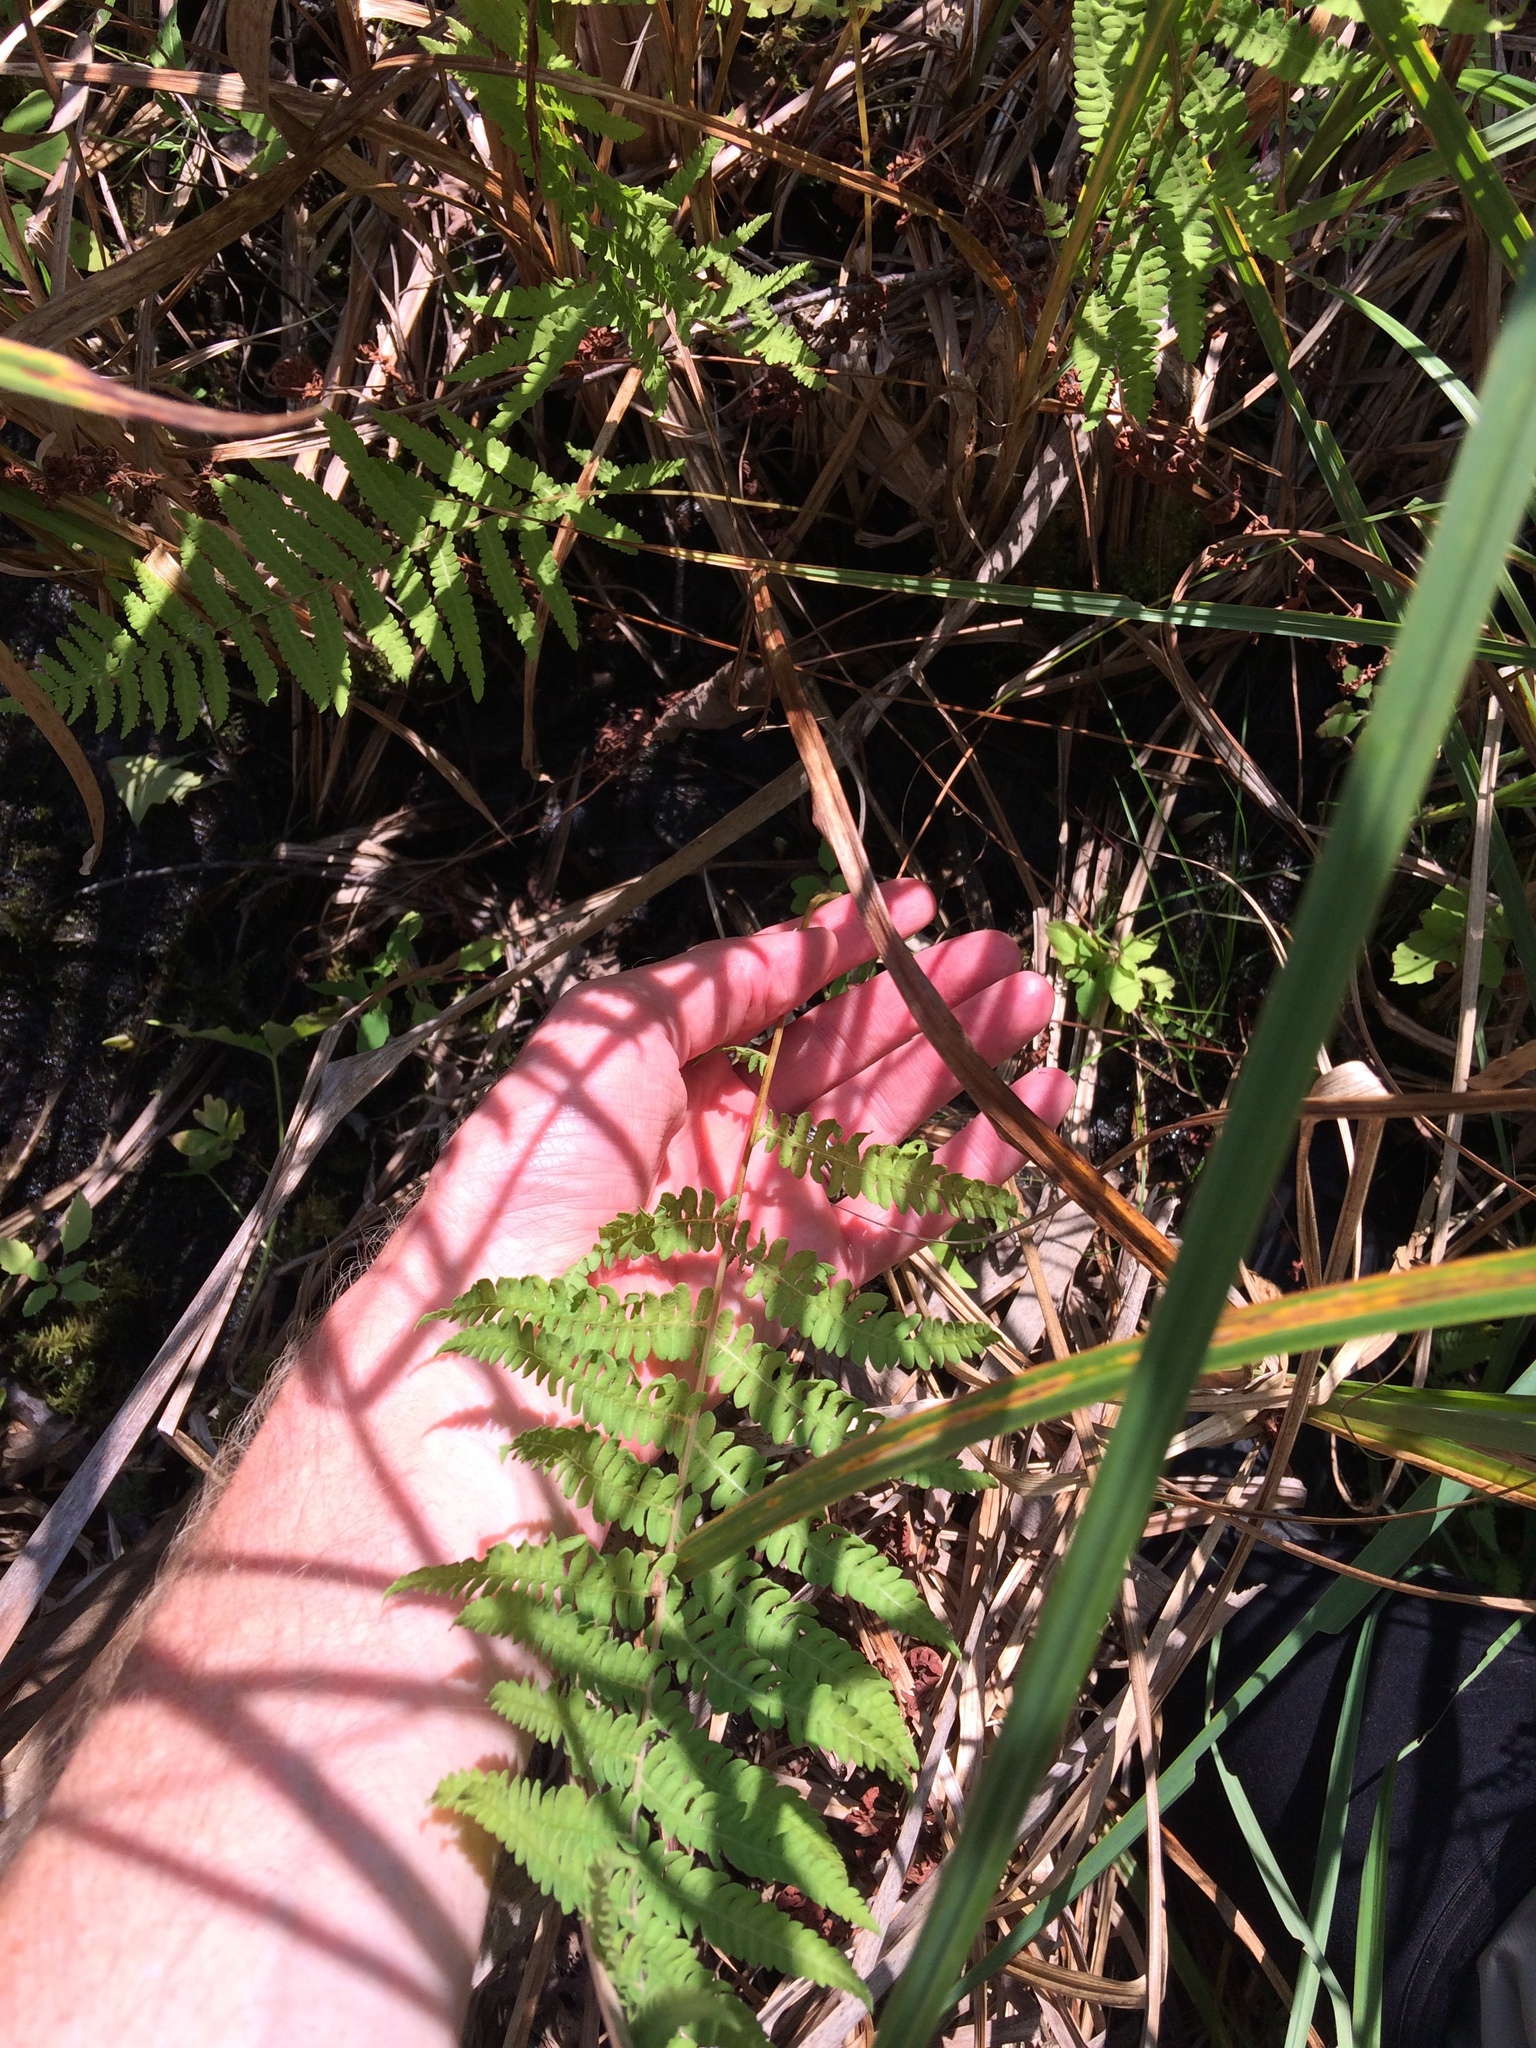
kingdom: Plantae
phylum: Tracheophyta
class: Polypodiopsida
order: Polypodiales
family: Thelypteridaceae
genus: Thelypteris
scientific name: Thelypteris palustris
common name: Marsh fern
